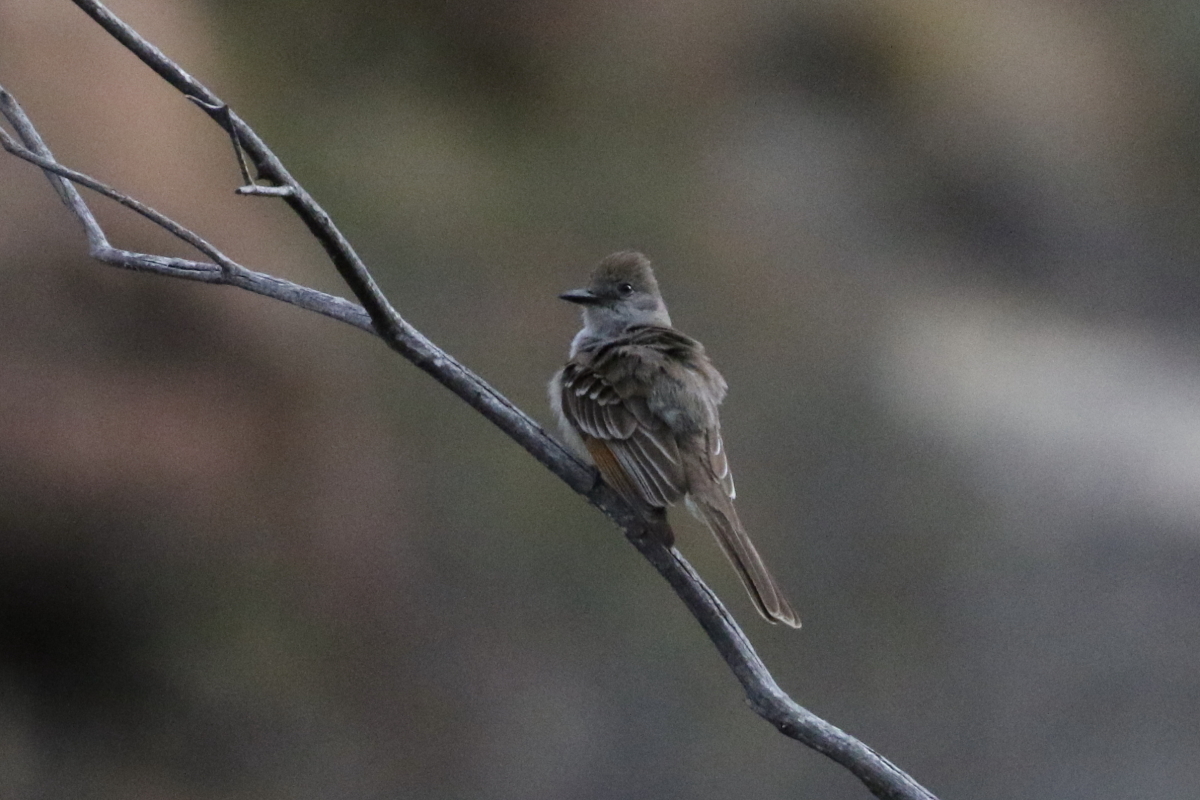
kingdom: Animalia
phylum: Chordata
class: Aves
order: Passeriformes
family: Tyrannidae
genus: Myiarchus
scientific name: Myiarchus cinerascens
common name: Ash-throated flycatcher
